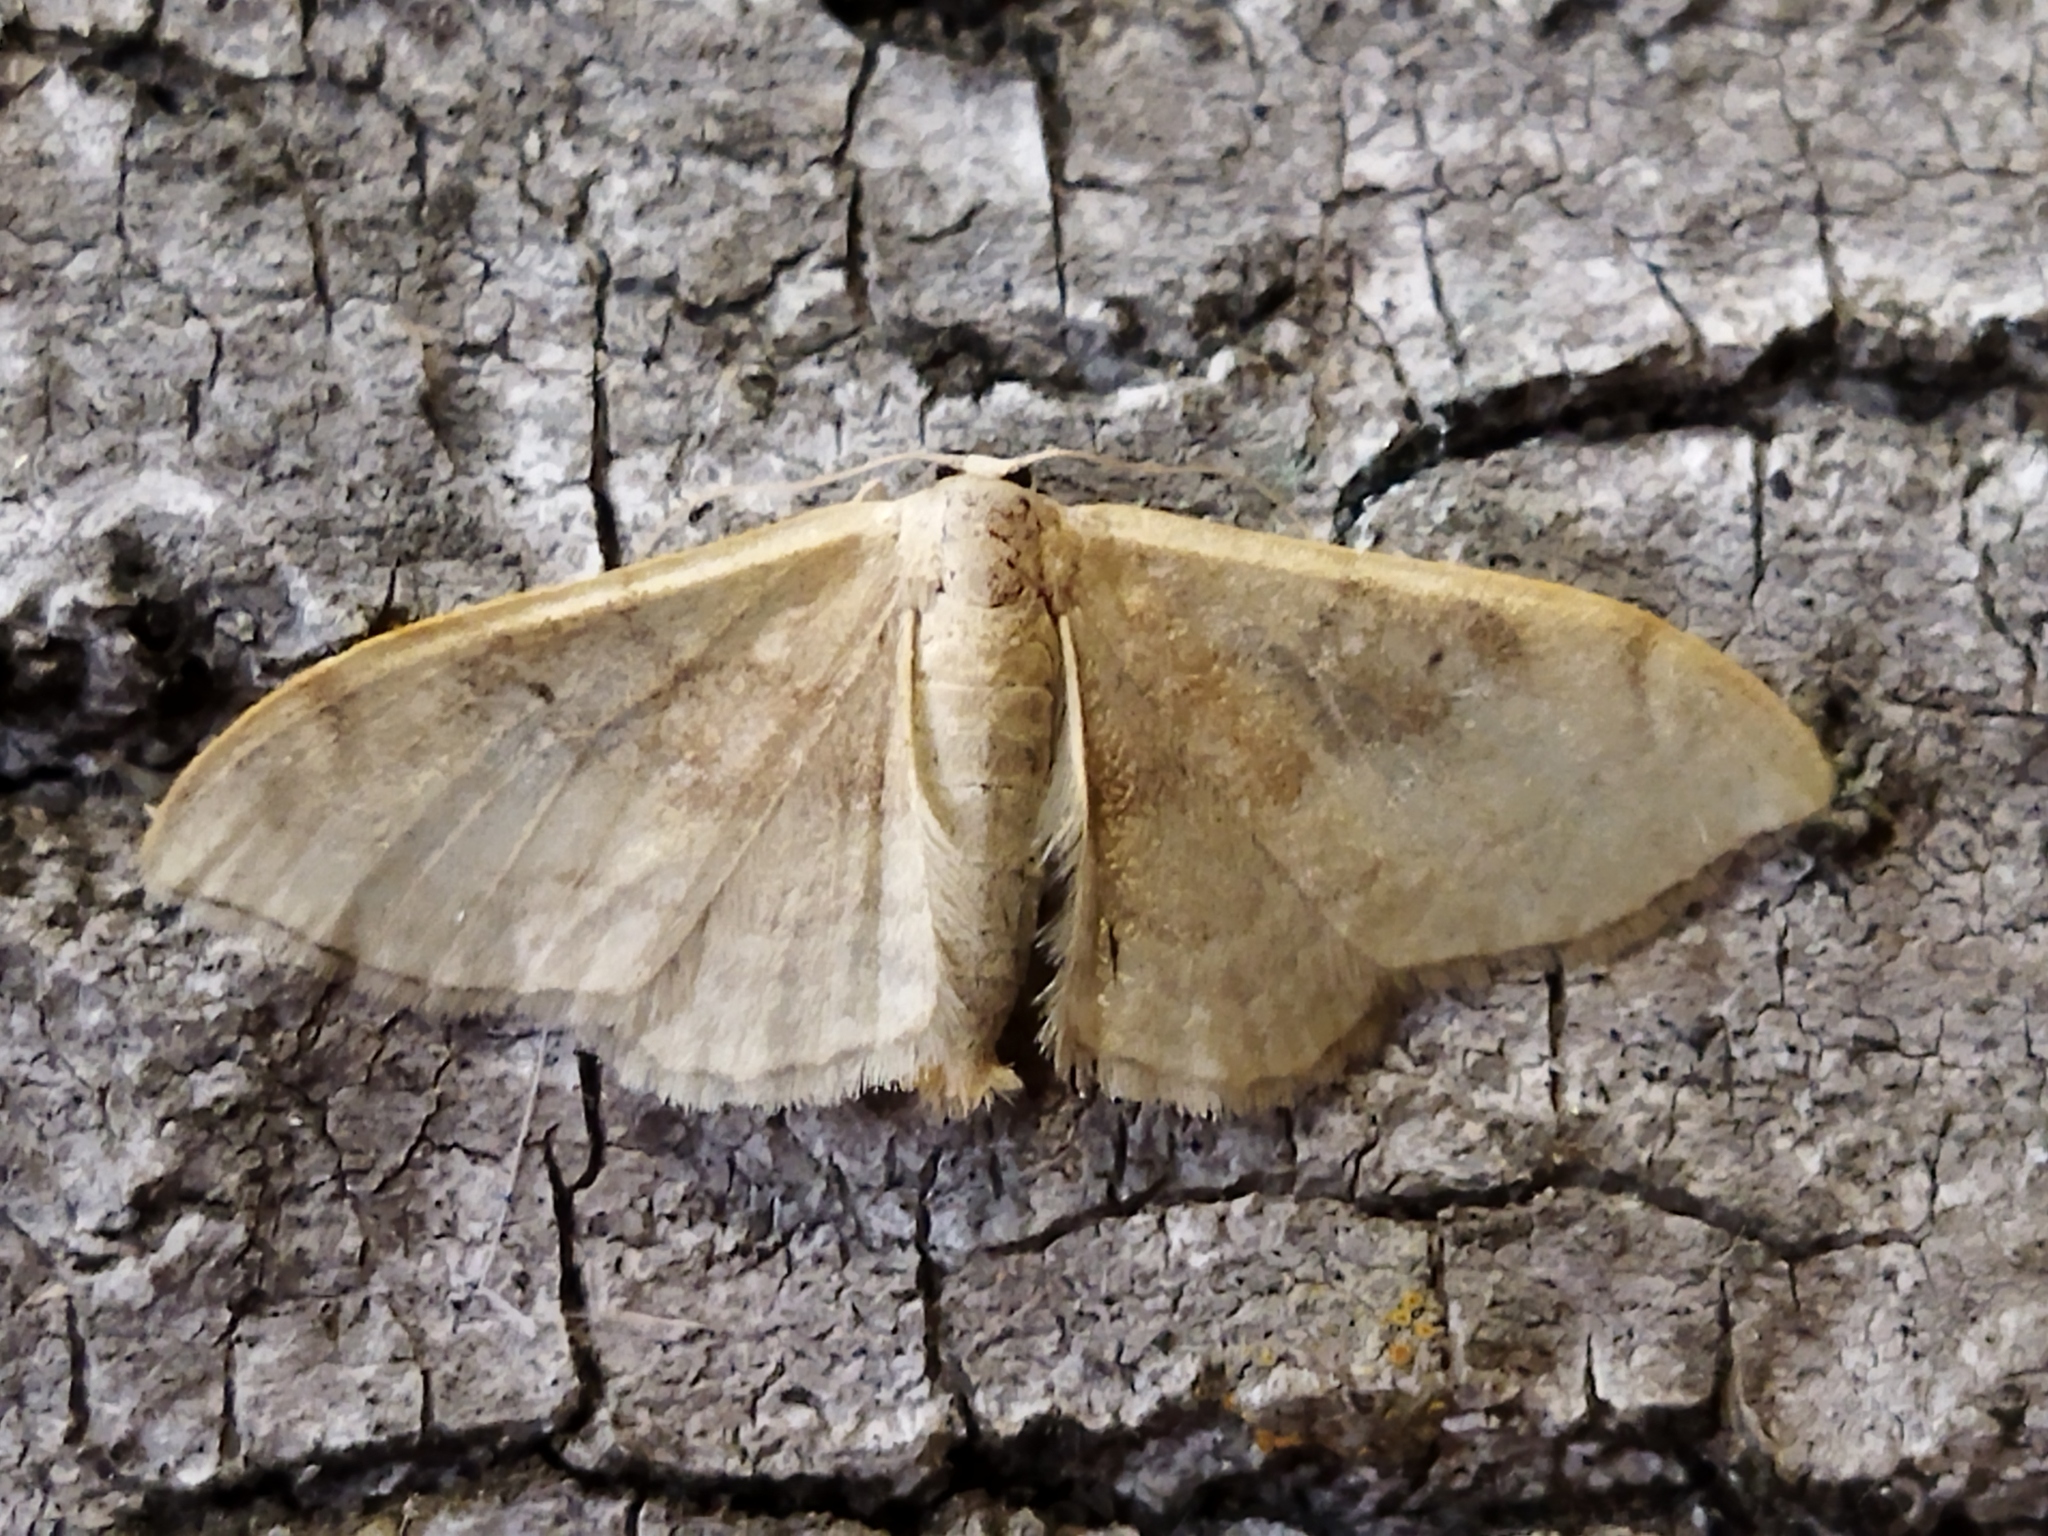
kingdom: Animalia
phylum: Arthropoda
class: Insecta
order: Lepidoptera
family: Geometridae
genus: Idaea
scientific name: Idaea degeneraria
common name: Portland ribbon wave
